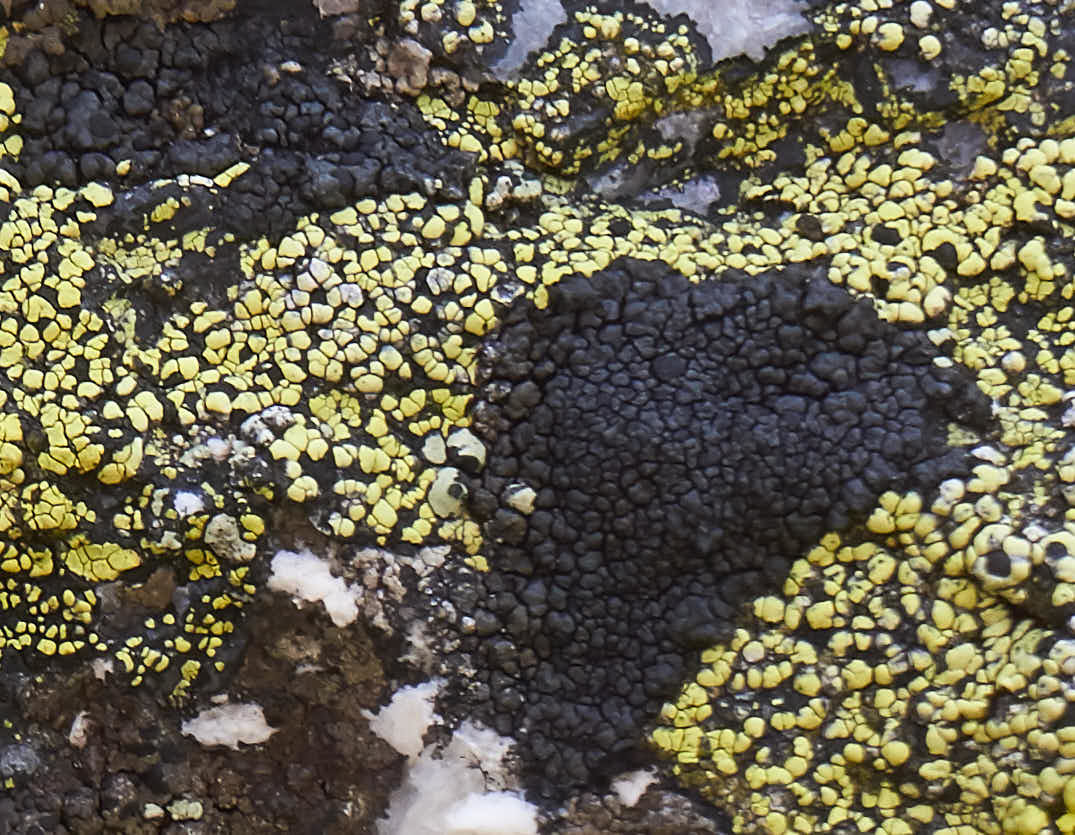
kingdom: Fungi
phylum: Ascomycota
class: Lecanoromycetes
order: Umbilicariales
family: Fuscideaceae
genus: Orphniospora
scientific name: Orphniospora moriopsis
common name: Black-on-black crust lichen
